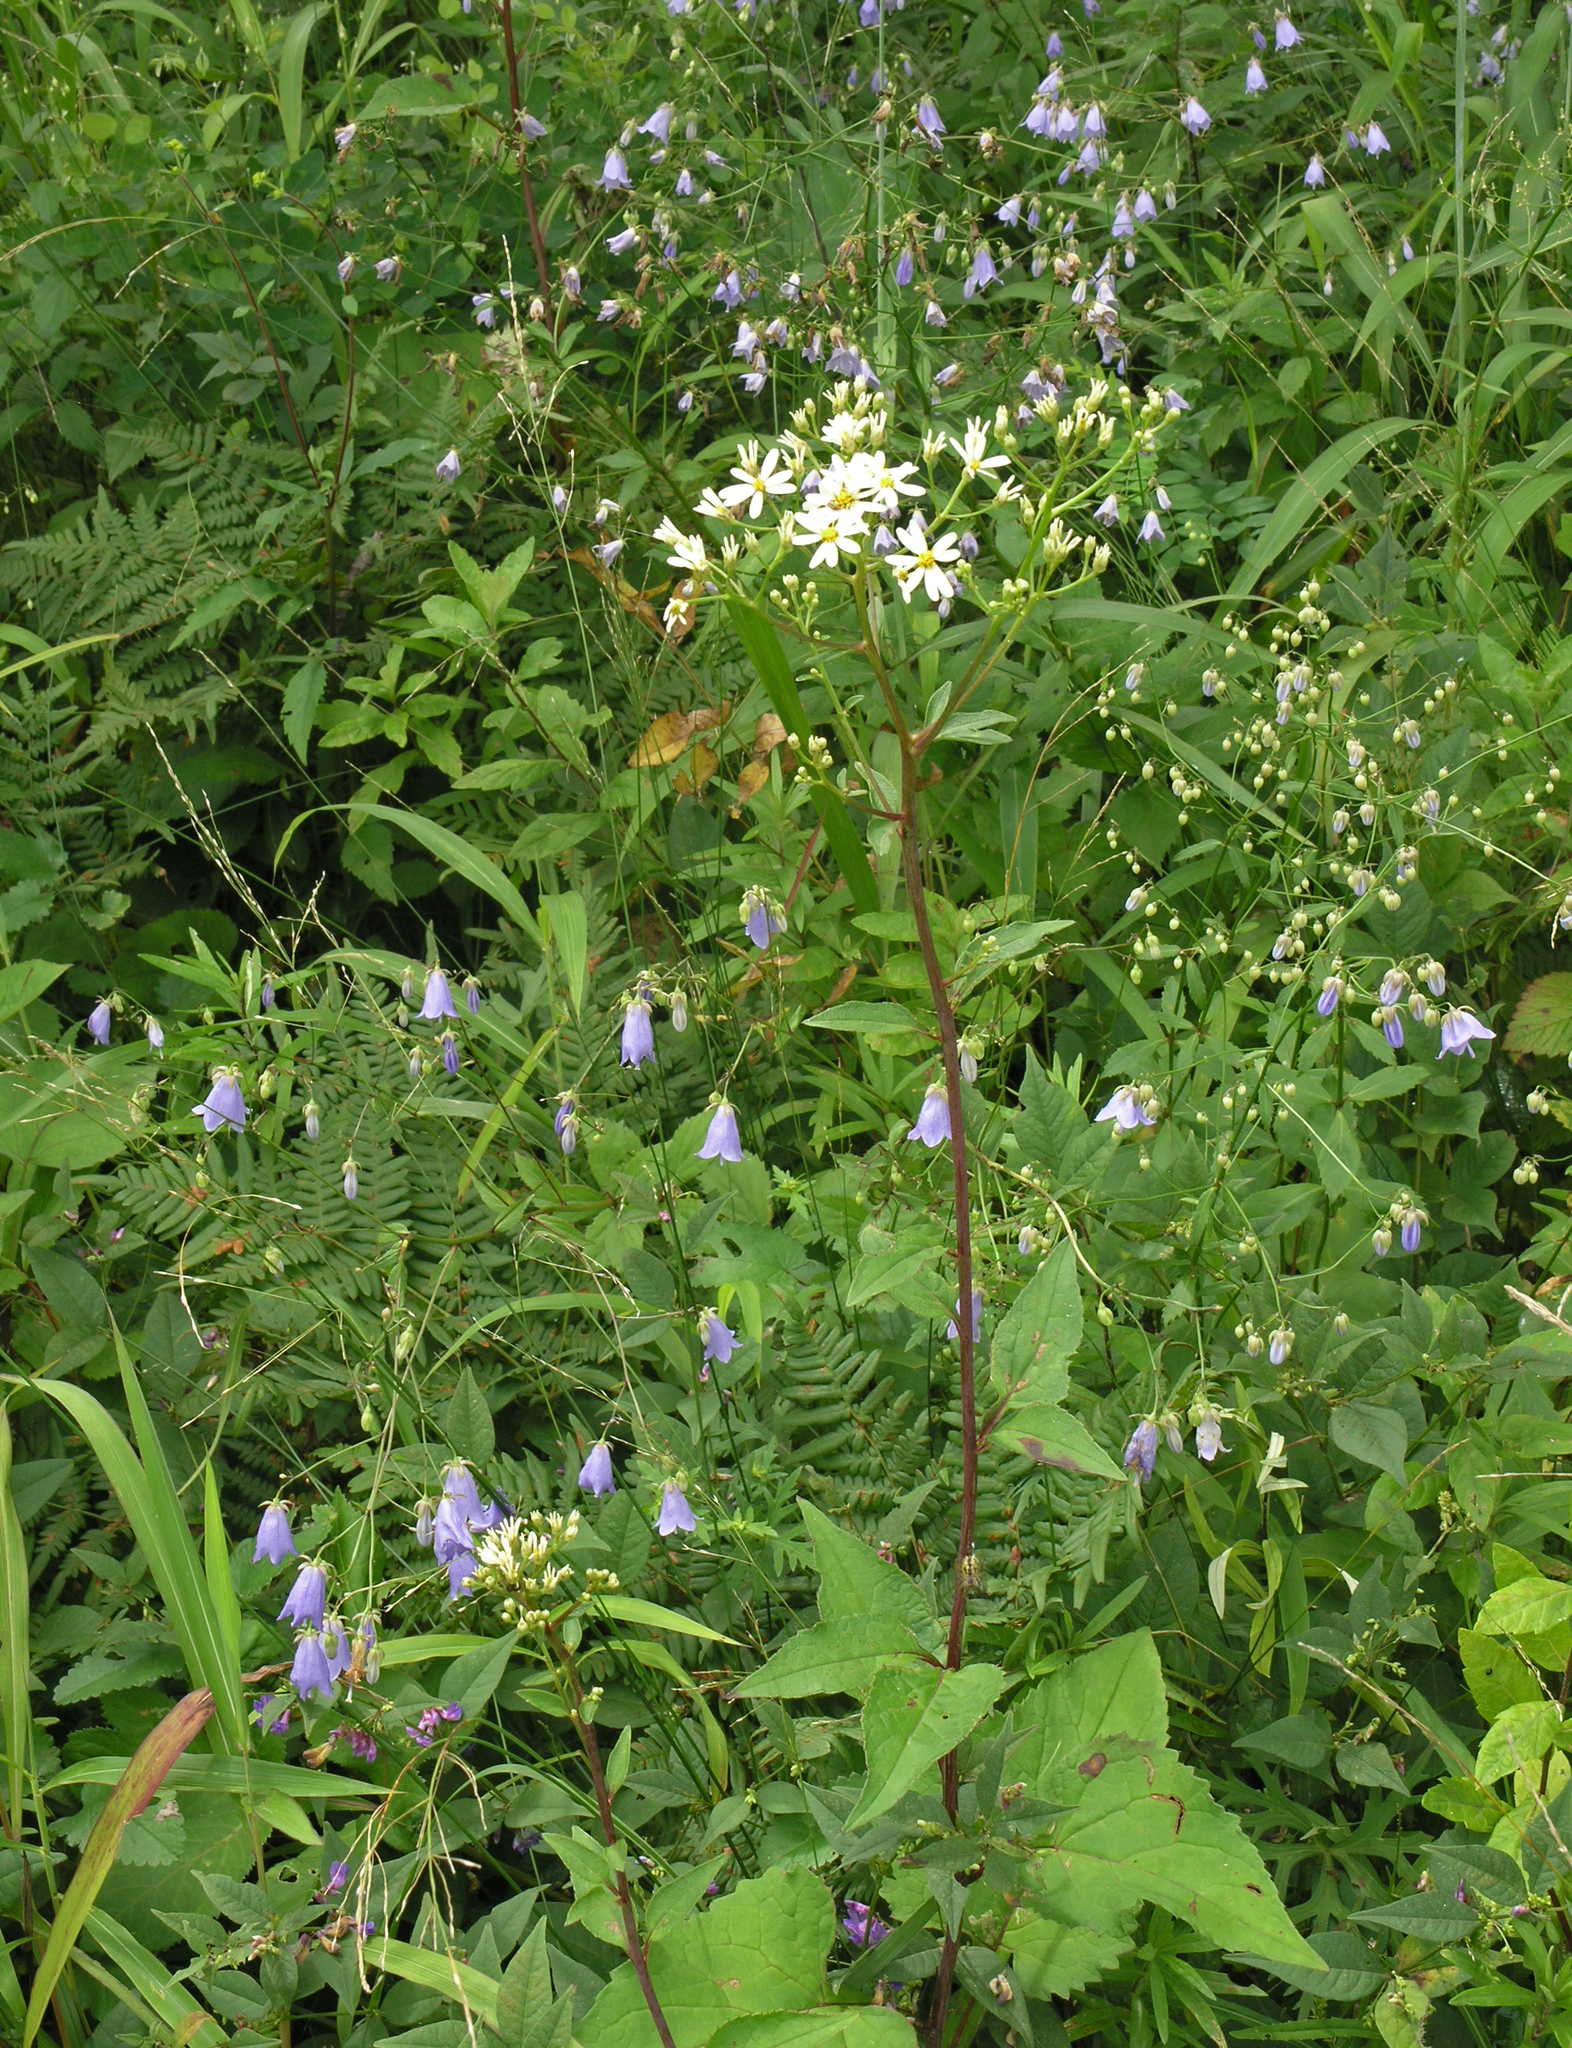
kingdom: Plantae
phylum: Tracheophyta
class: Magnoliopsida
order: Asterales
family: Asteraceae
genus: Aster
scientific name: Aster scaber
